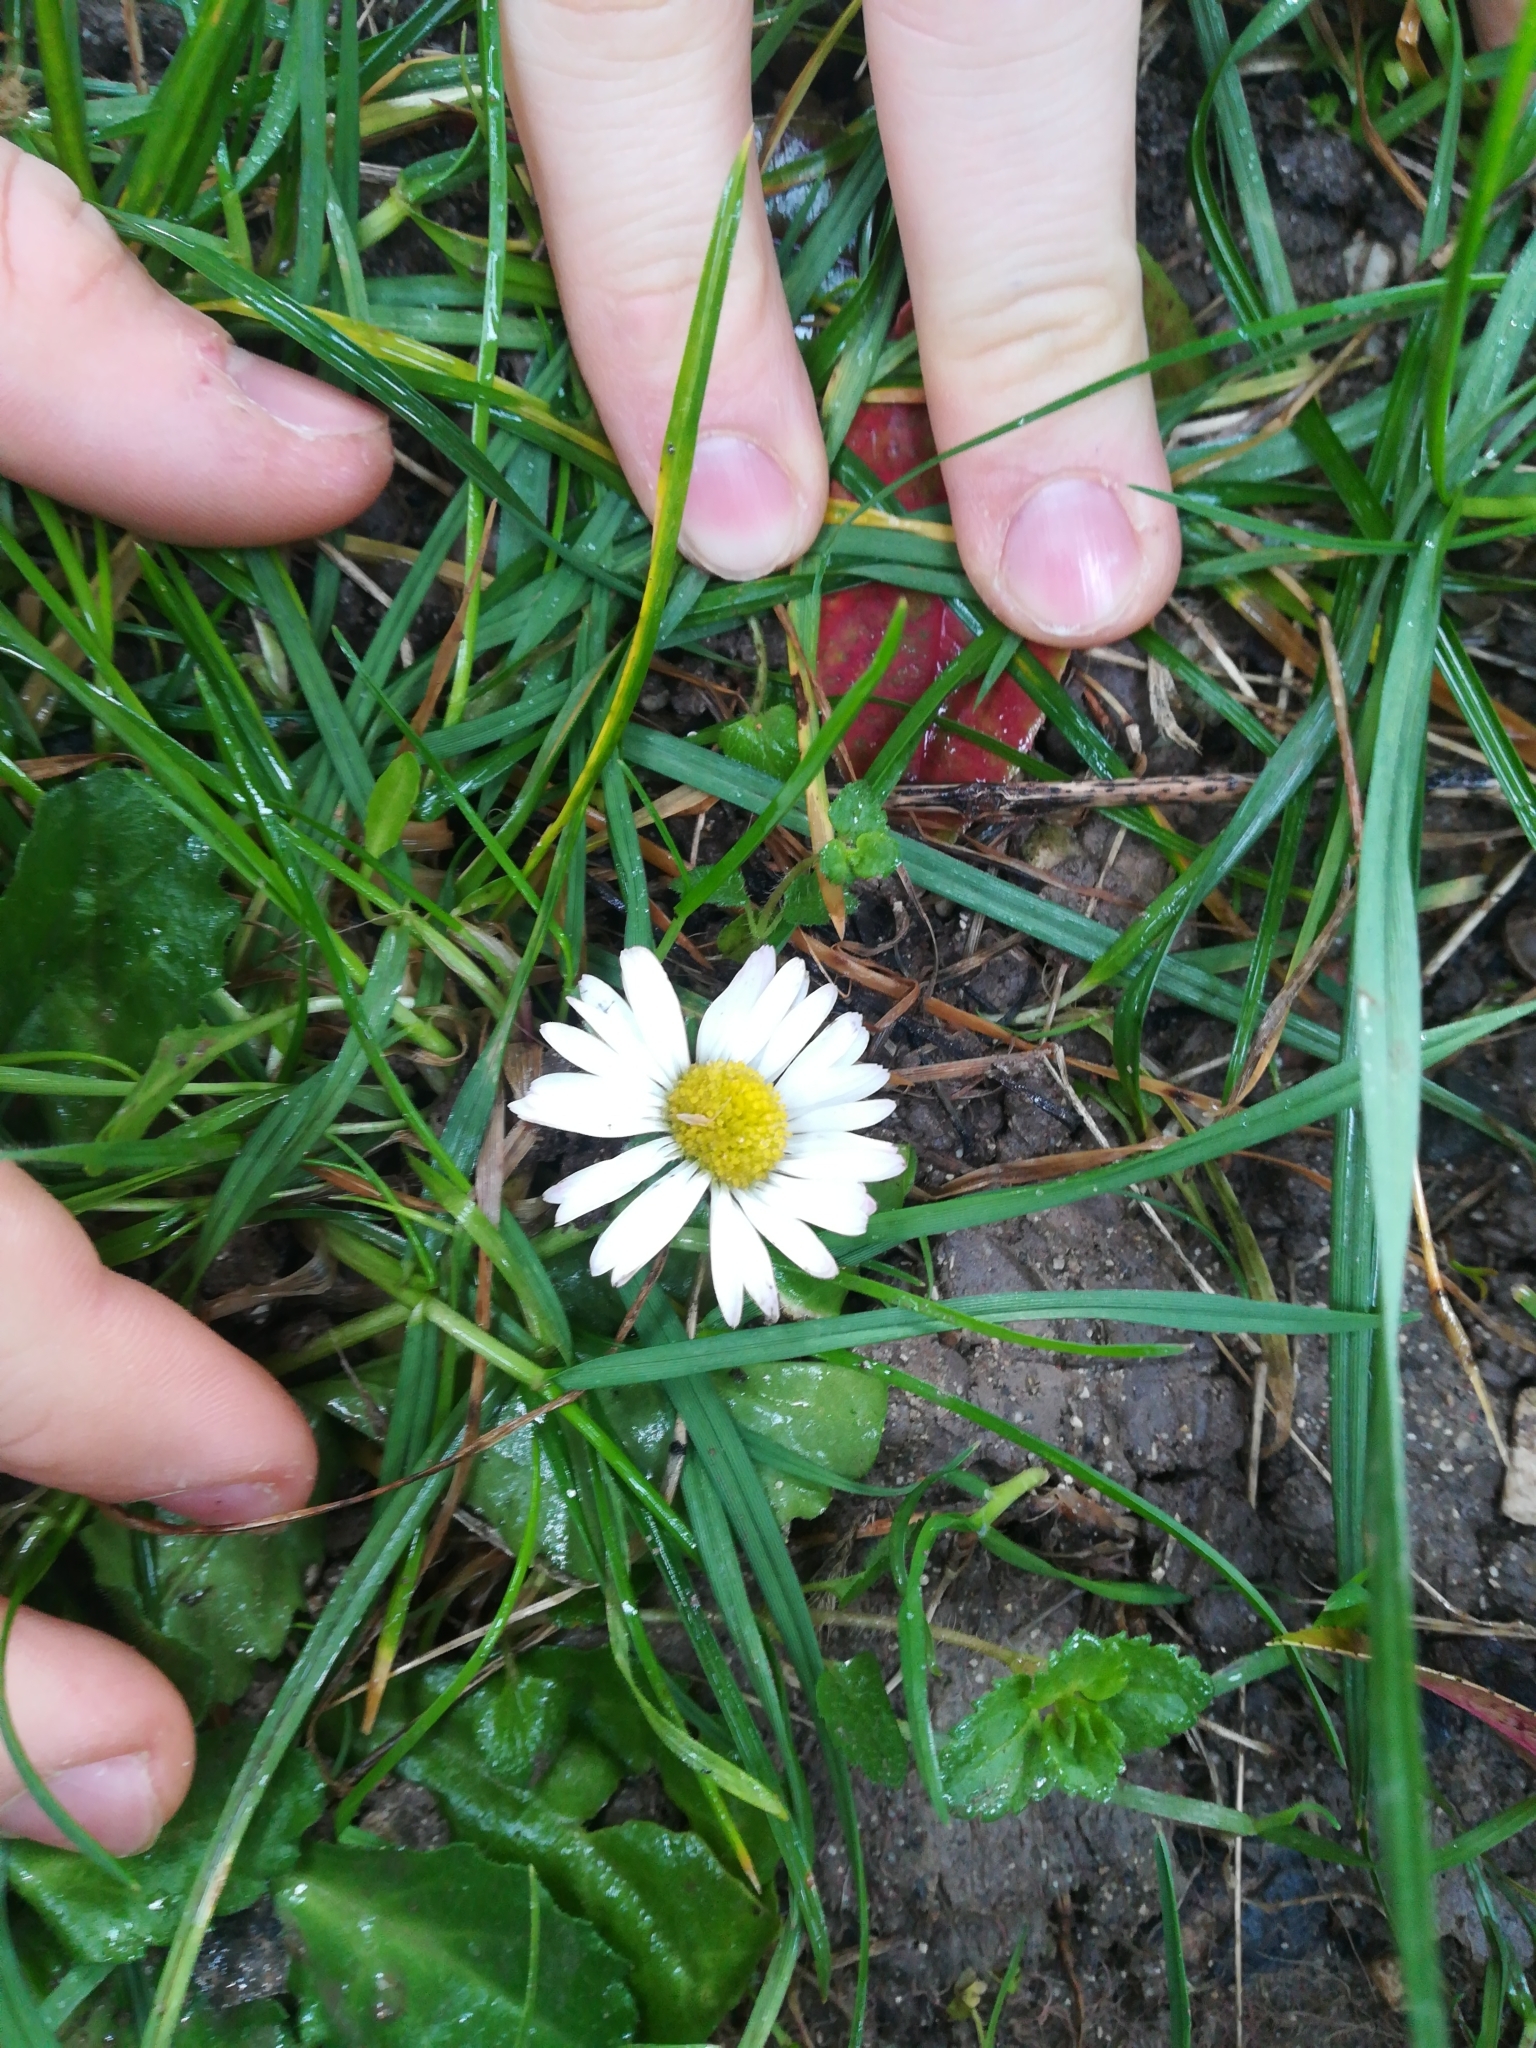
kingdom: Plantae
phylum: Tracheophyta
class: Magnoliopsida
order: Asterales
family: Asteraceae
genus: Bellis
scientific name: Bellis perennis
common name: Lawndaisy
